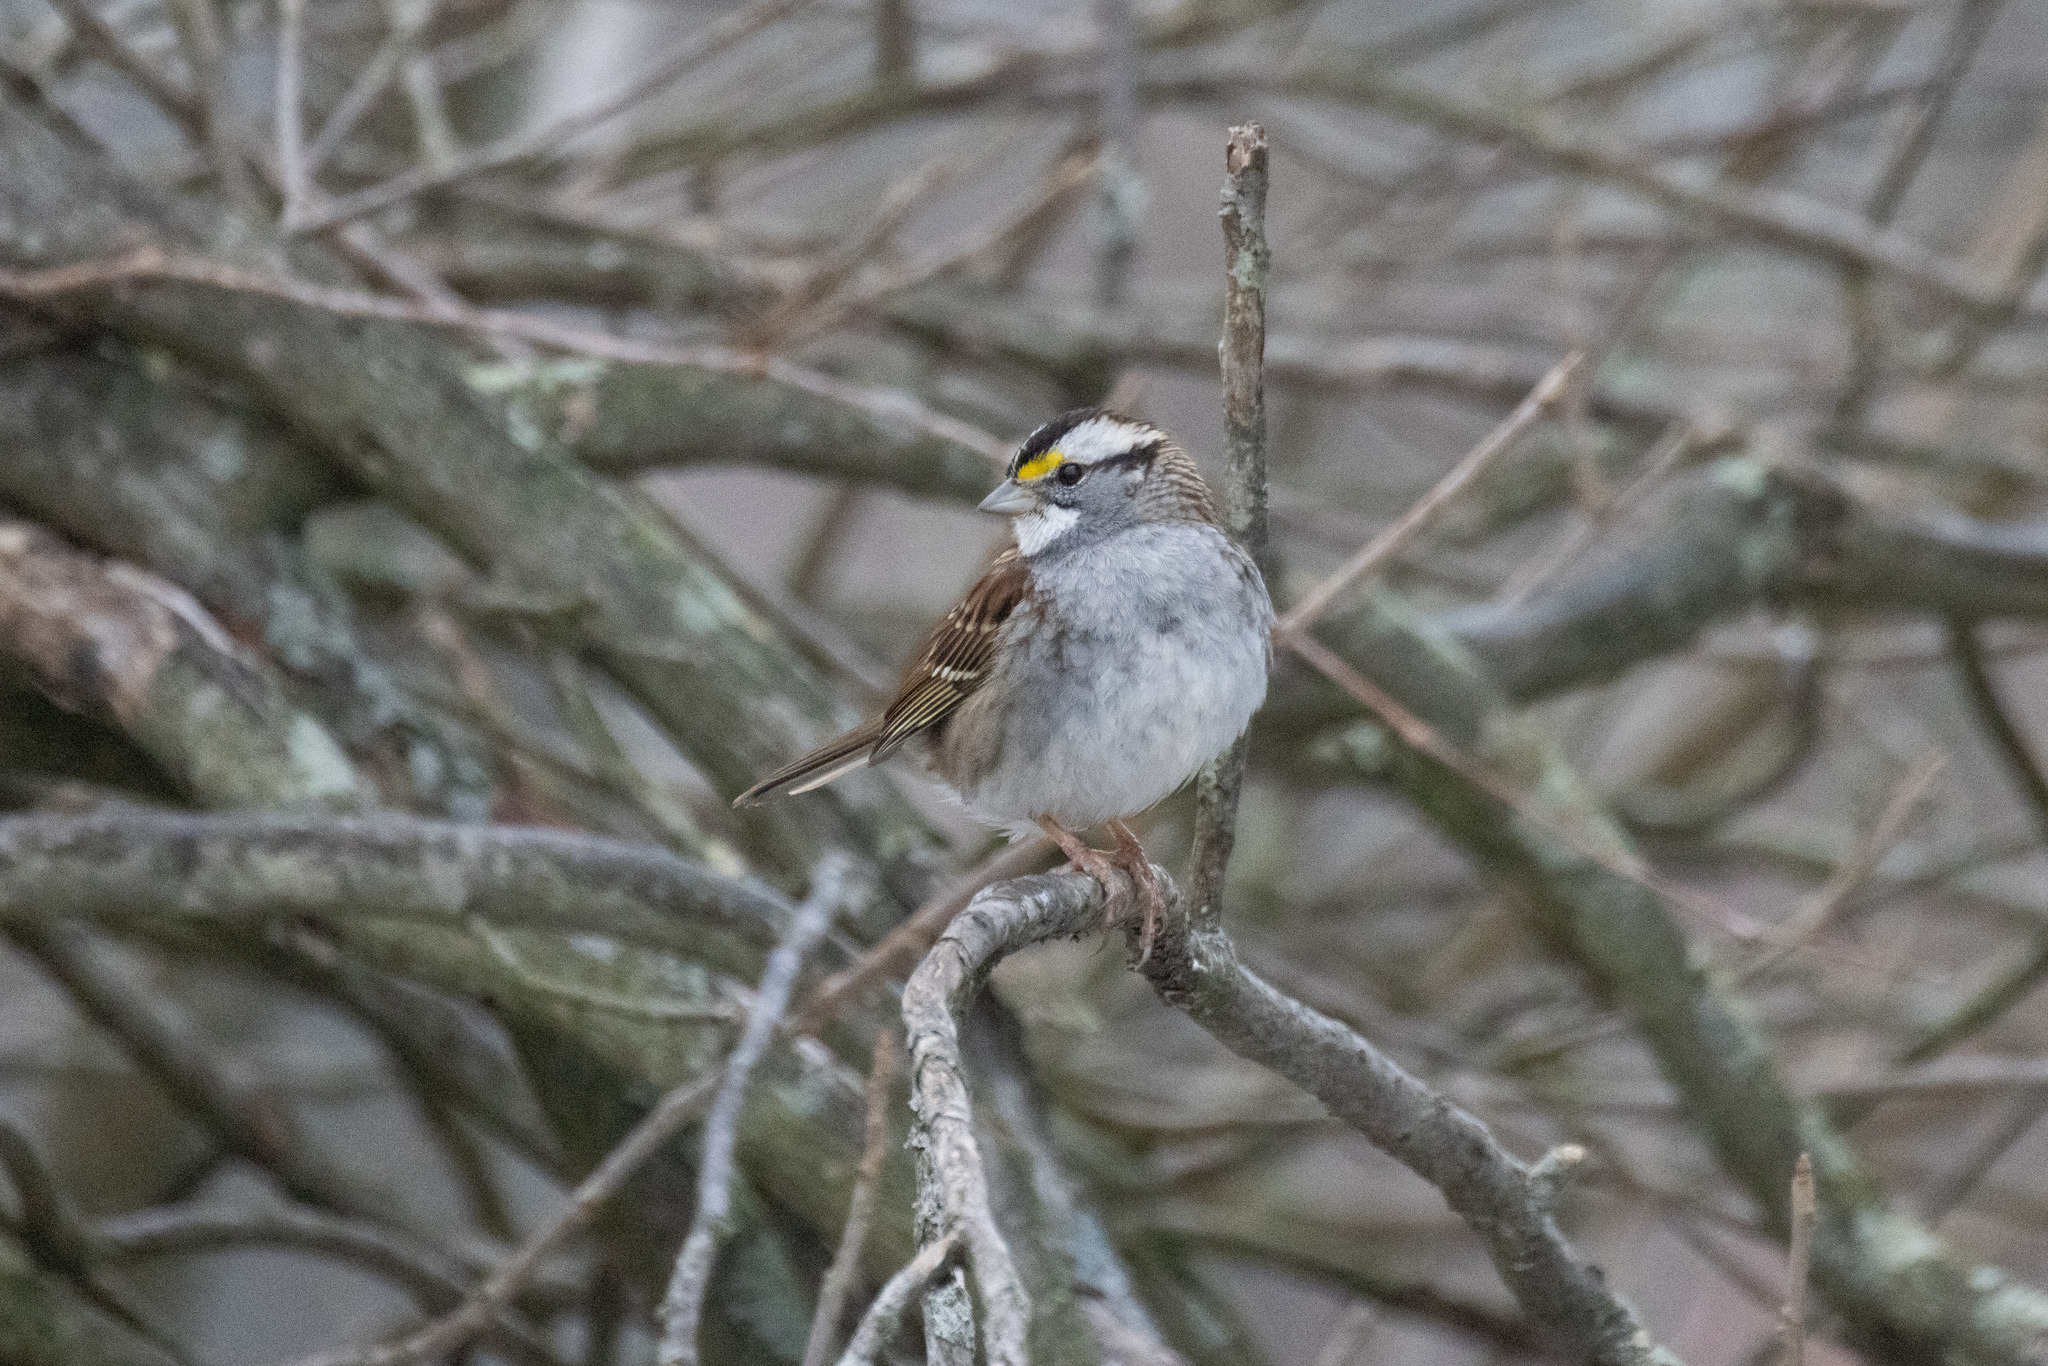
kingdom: Animalia
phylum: Chordata
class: Aves
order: Passeriformes
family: Passerellidae
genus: Zonotrichia
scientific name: Zonotrichia albicollis
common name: White-throated sparrow
